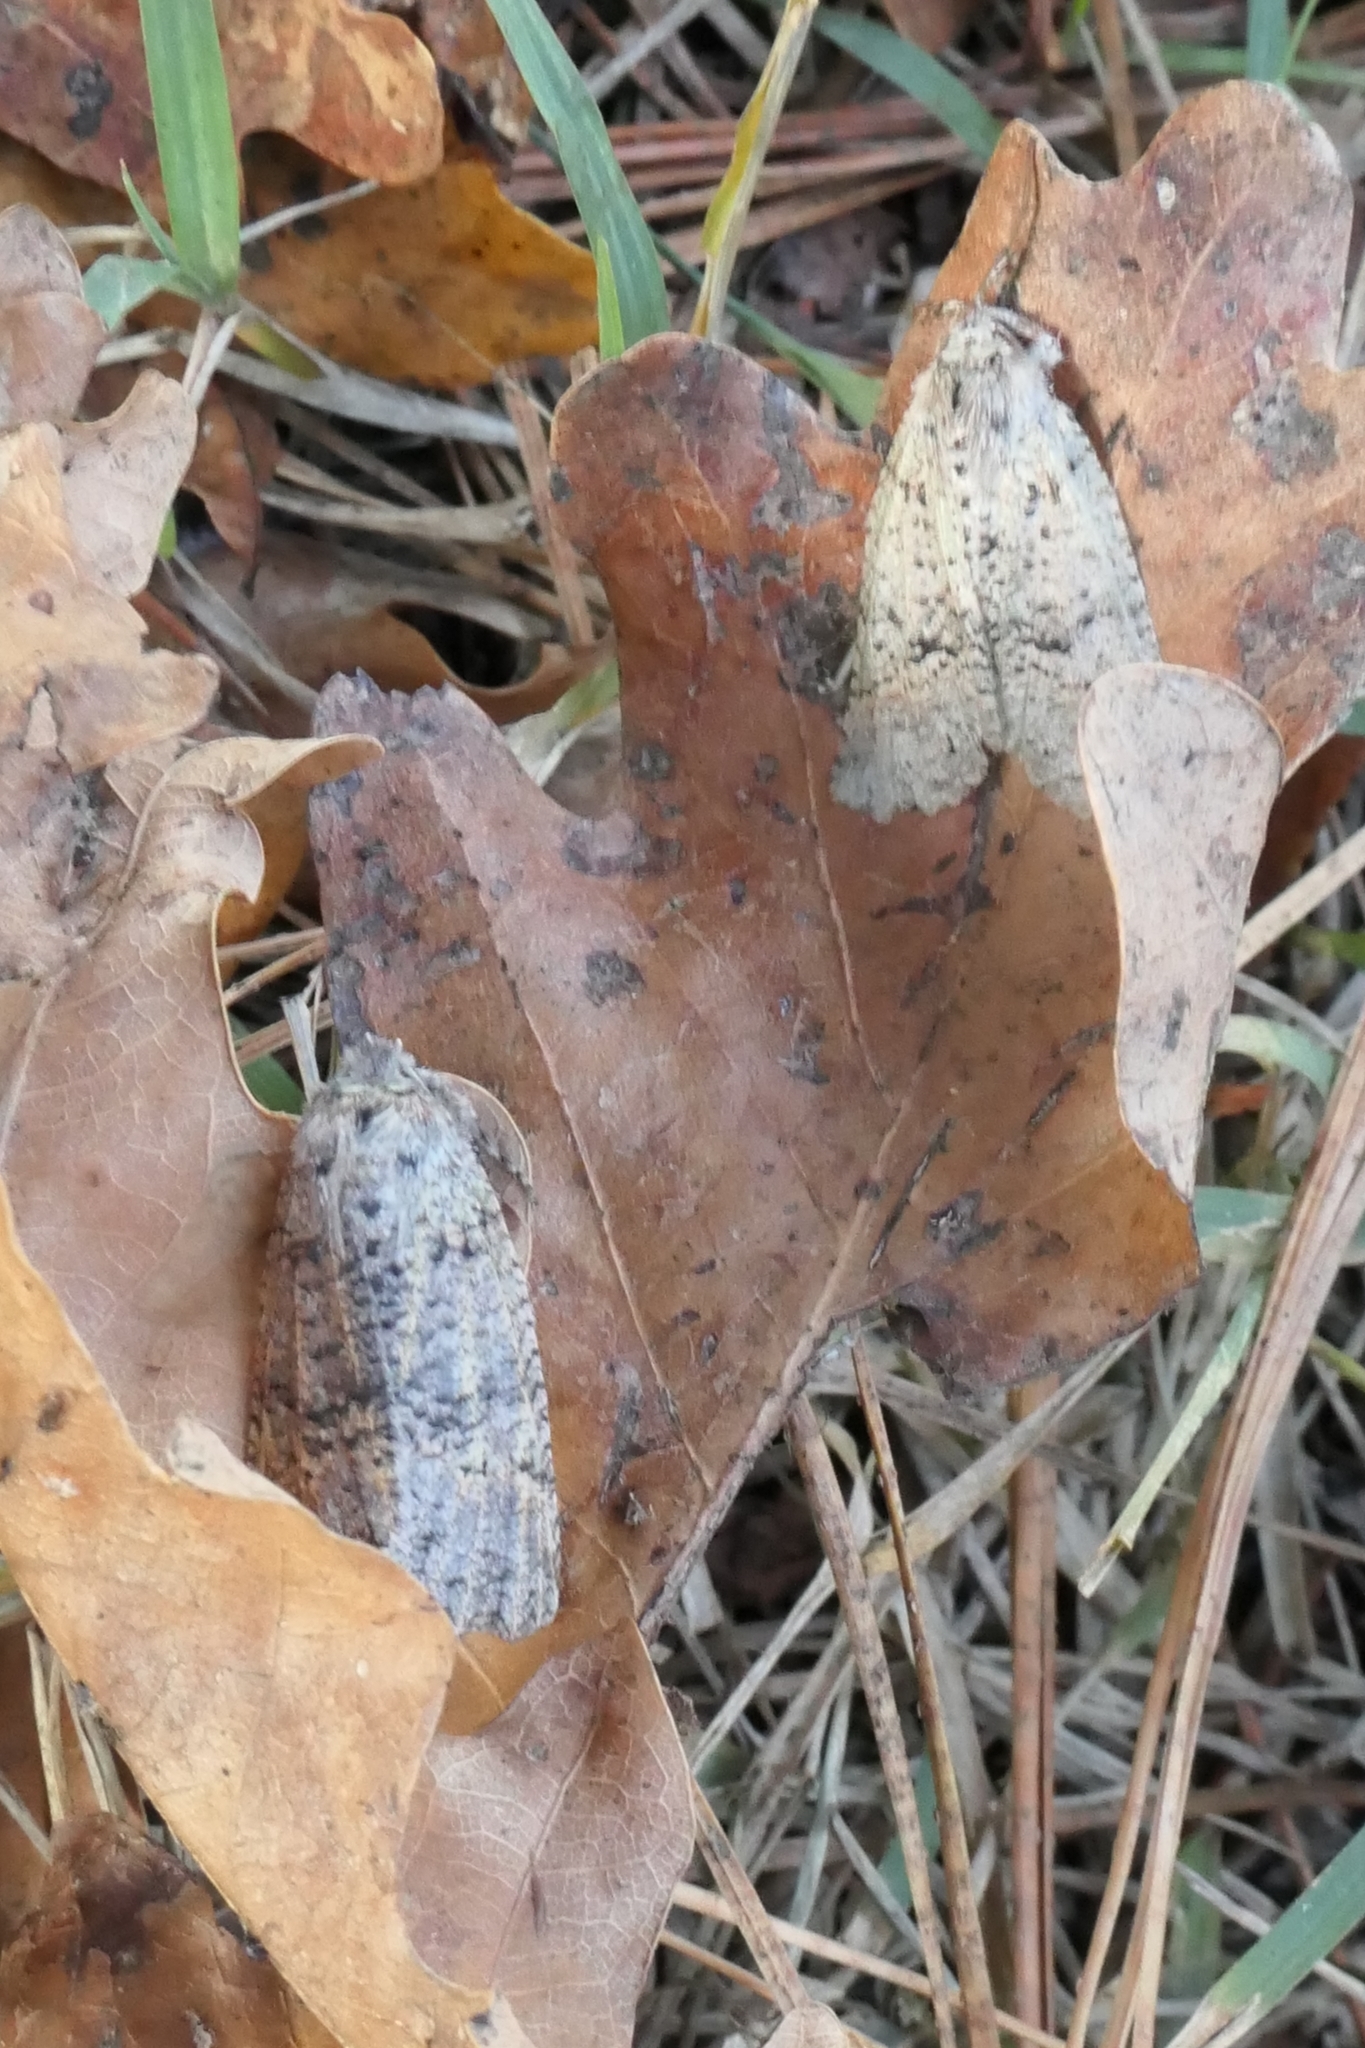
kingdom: Animalia
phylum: Arthropoda
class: Insecta
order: Lepidoptera
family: Geometridae
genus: Declana
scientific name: Declana floccosa
